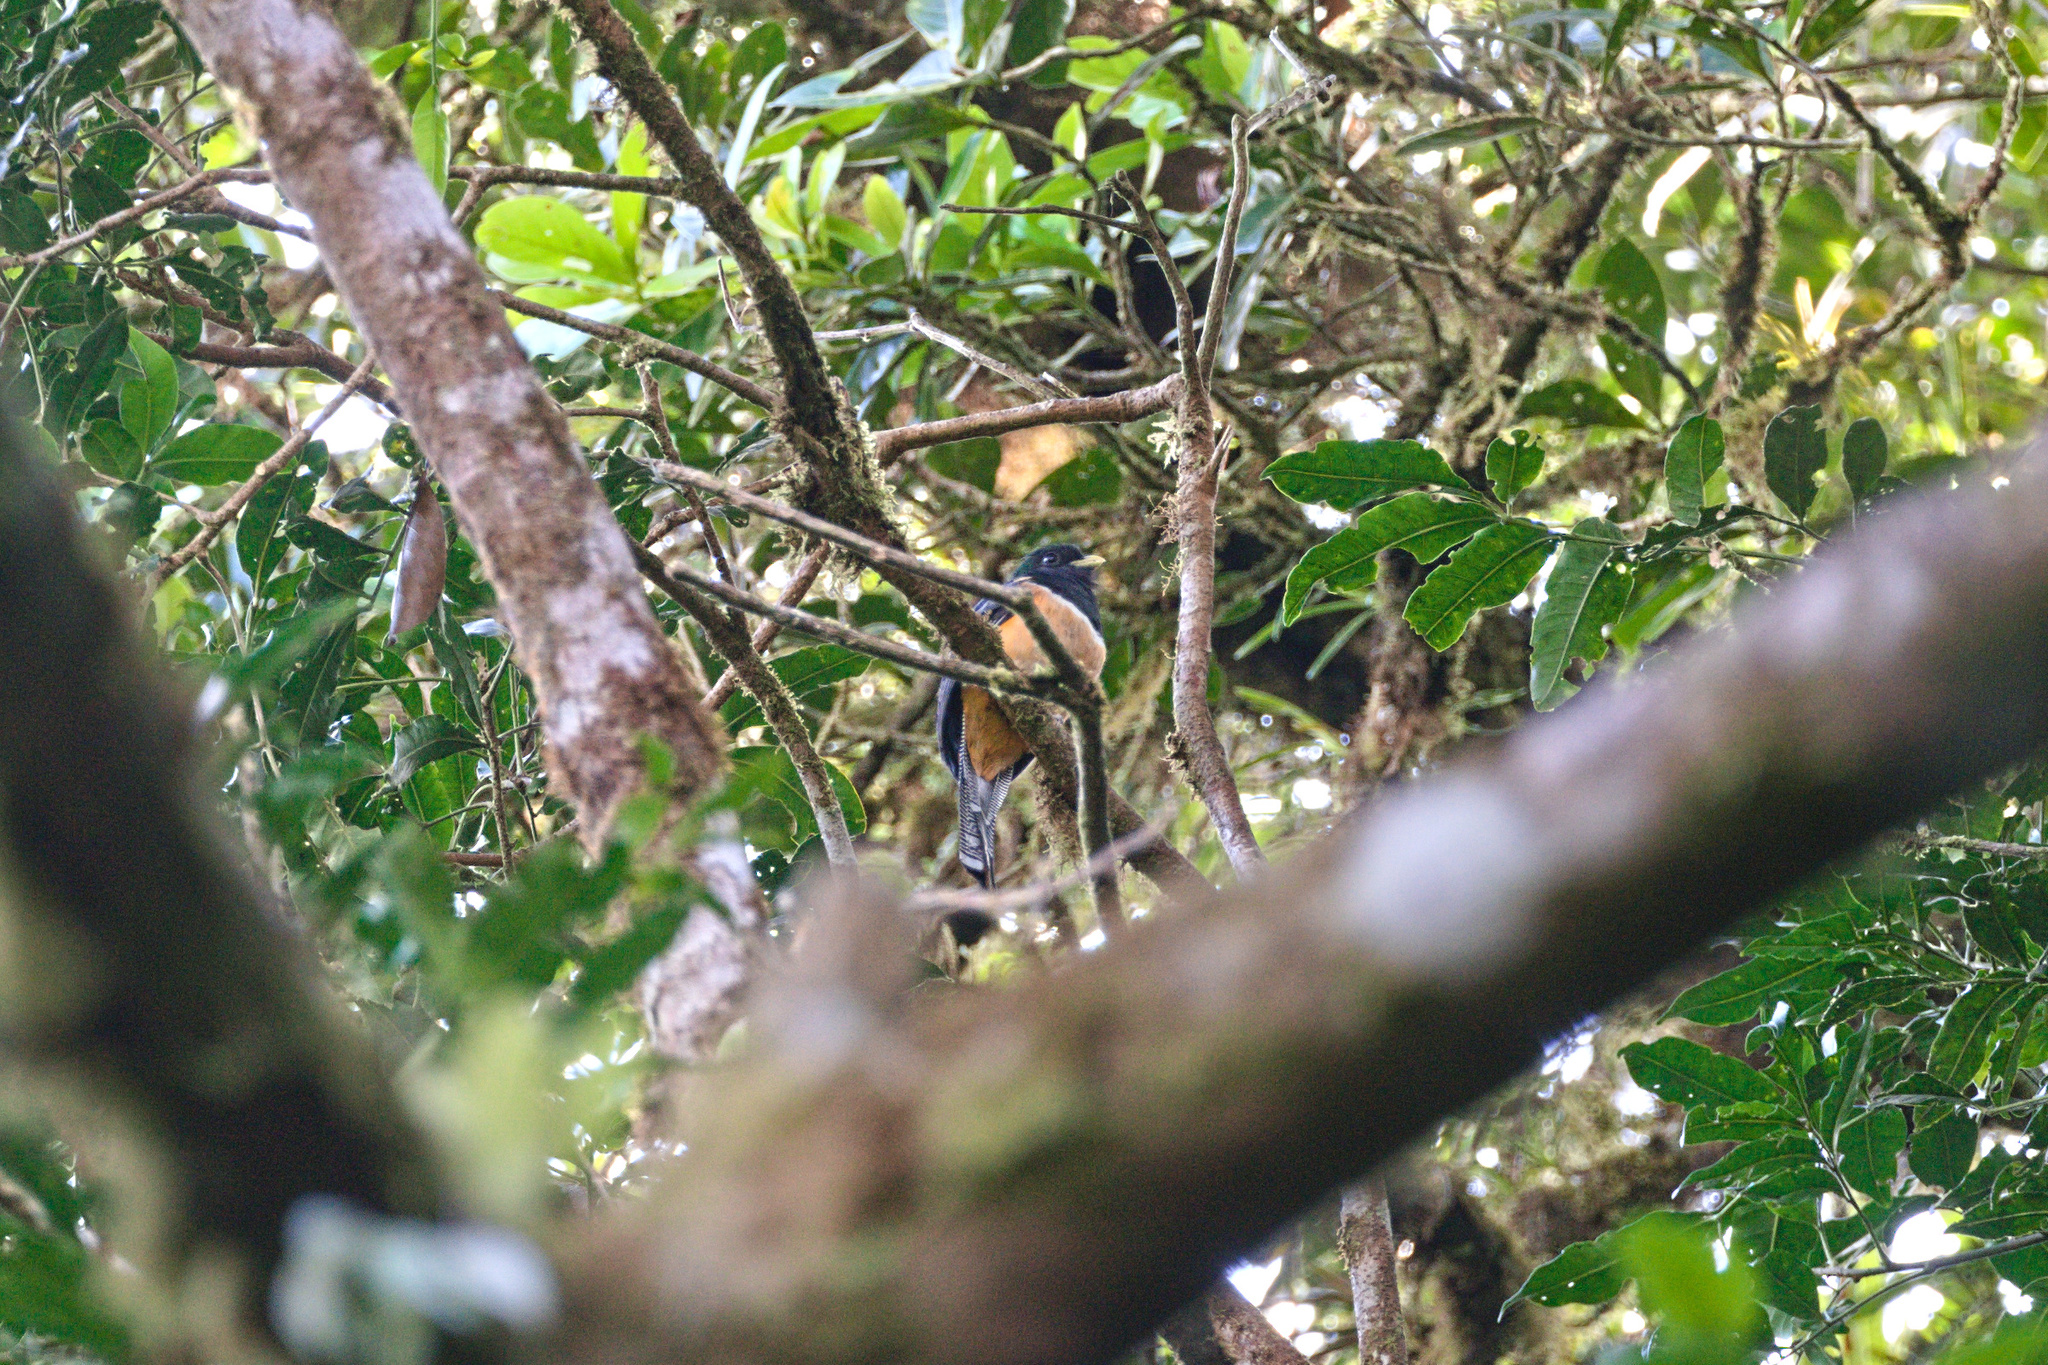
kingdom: Animalia
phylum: Chordata
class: Aves
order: Trogoniformes
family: Trogonidae
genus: Trogon
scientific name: Trogon collaris
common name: Collared trogon
